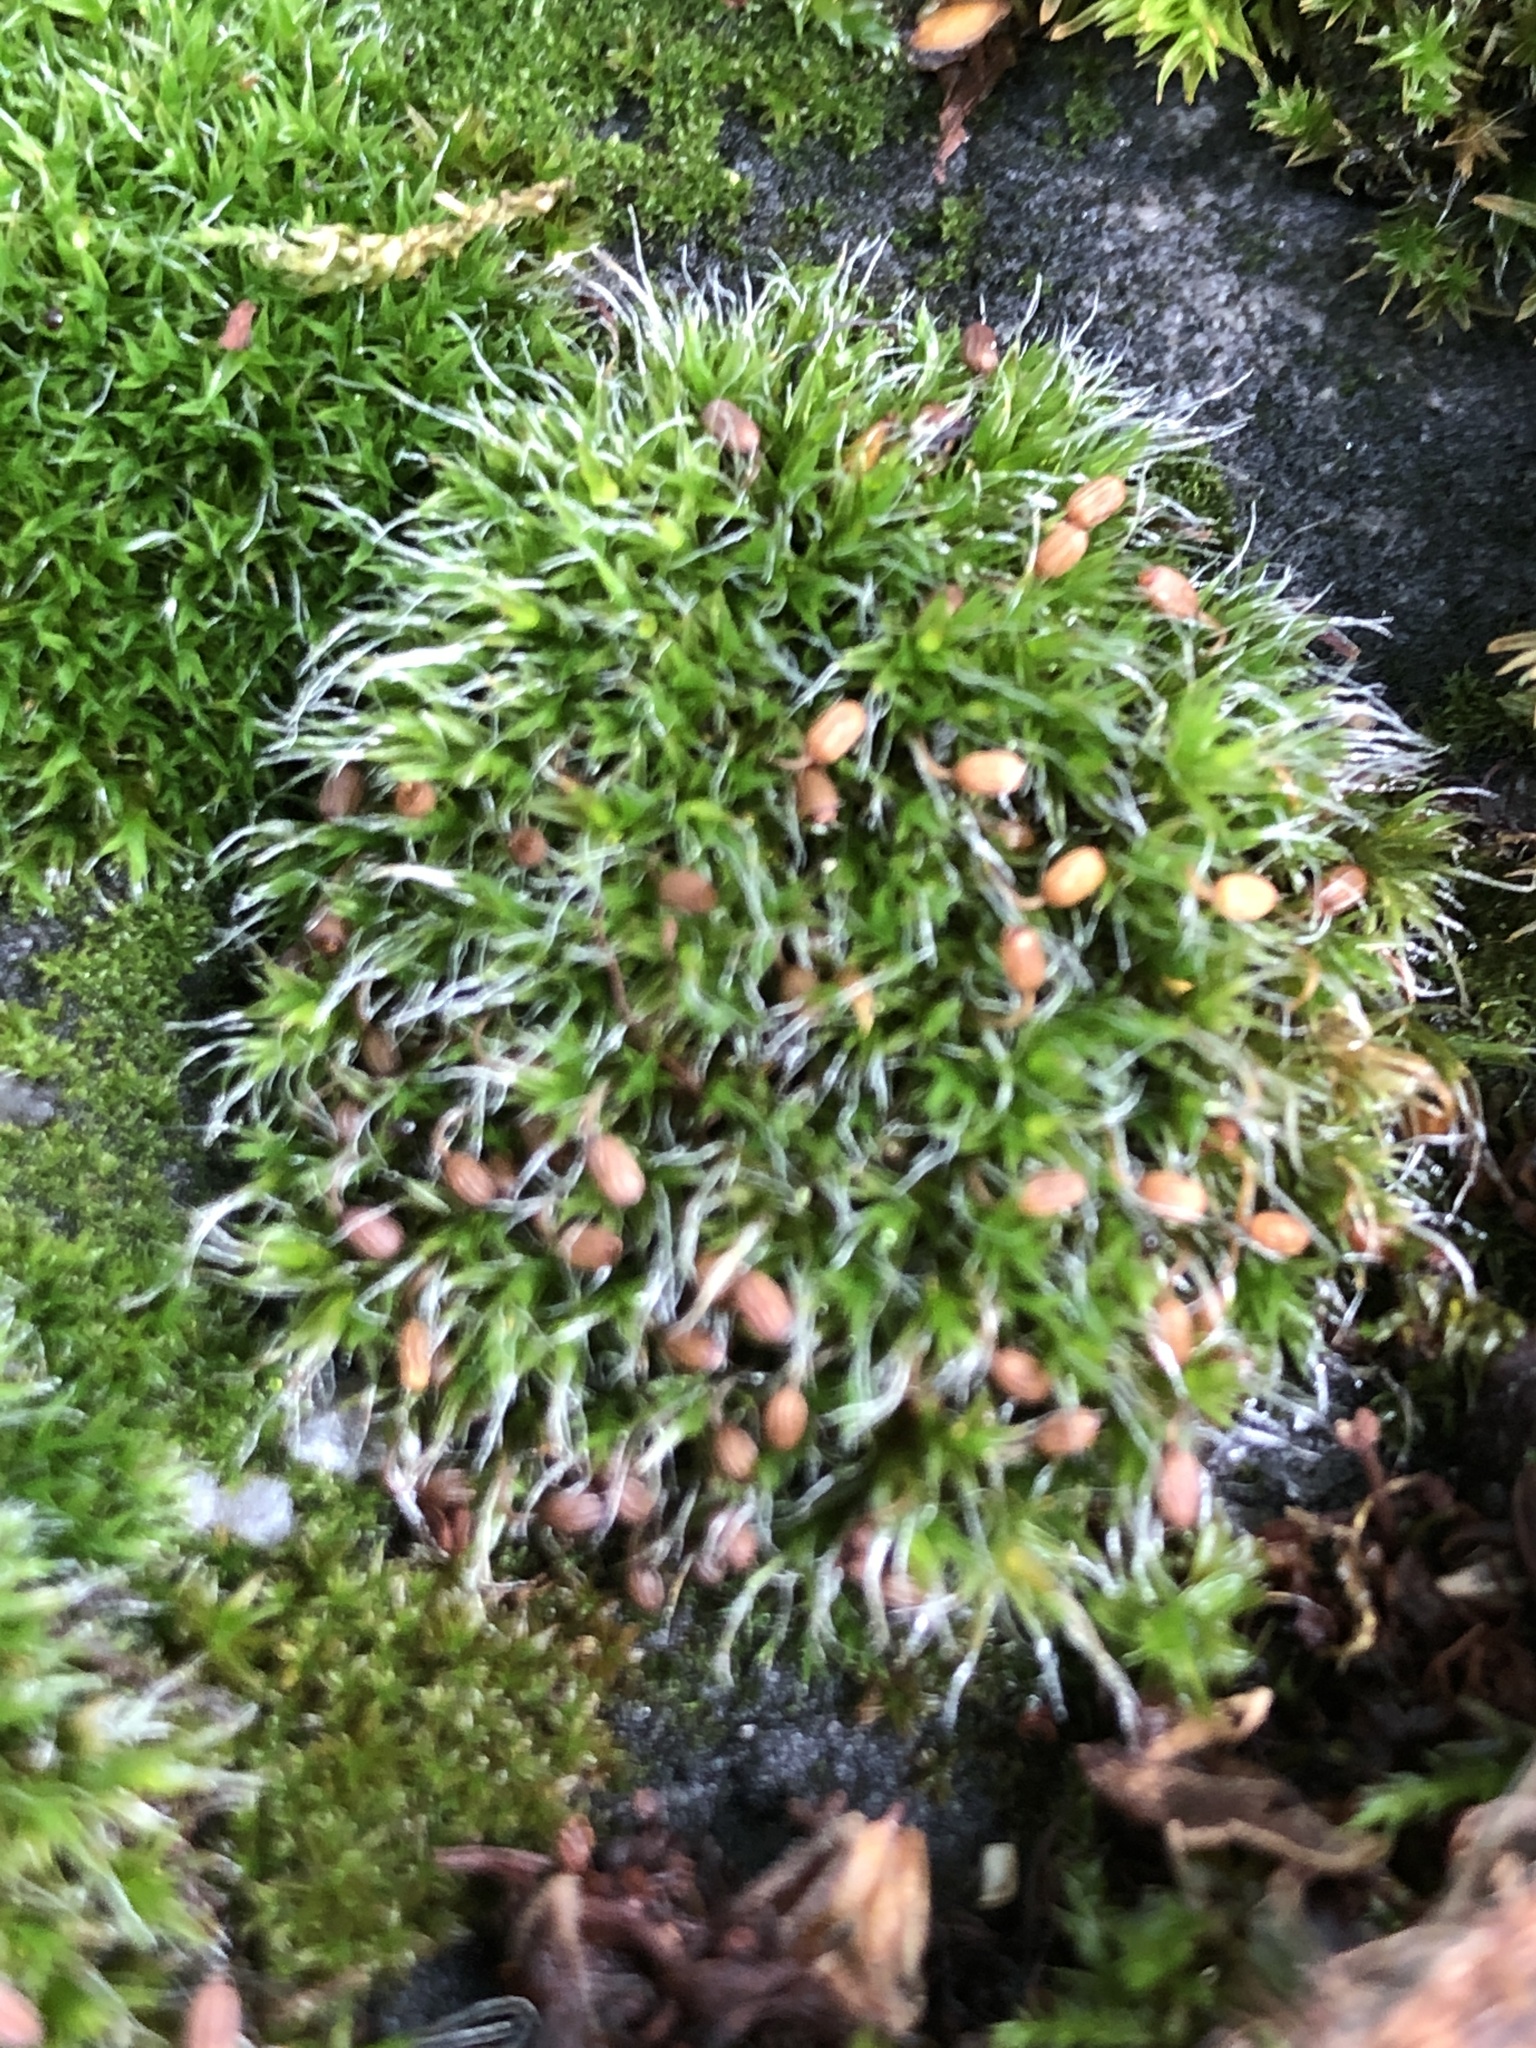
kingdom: Plantae
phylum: Bryophyta
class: Bryopsida
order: Grimmiales
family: Grimmiaceae
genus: Grimmia
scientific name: Grimmia pulvinata
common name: Grey-cushioned grimmia
